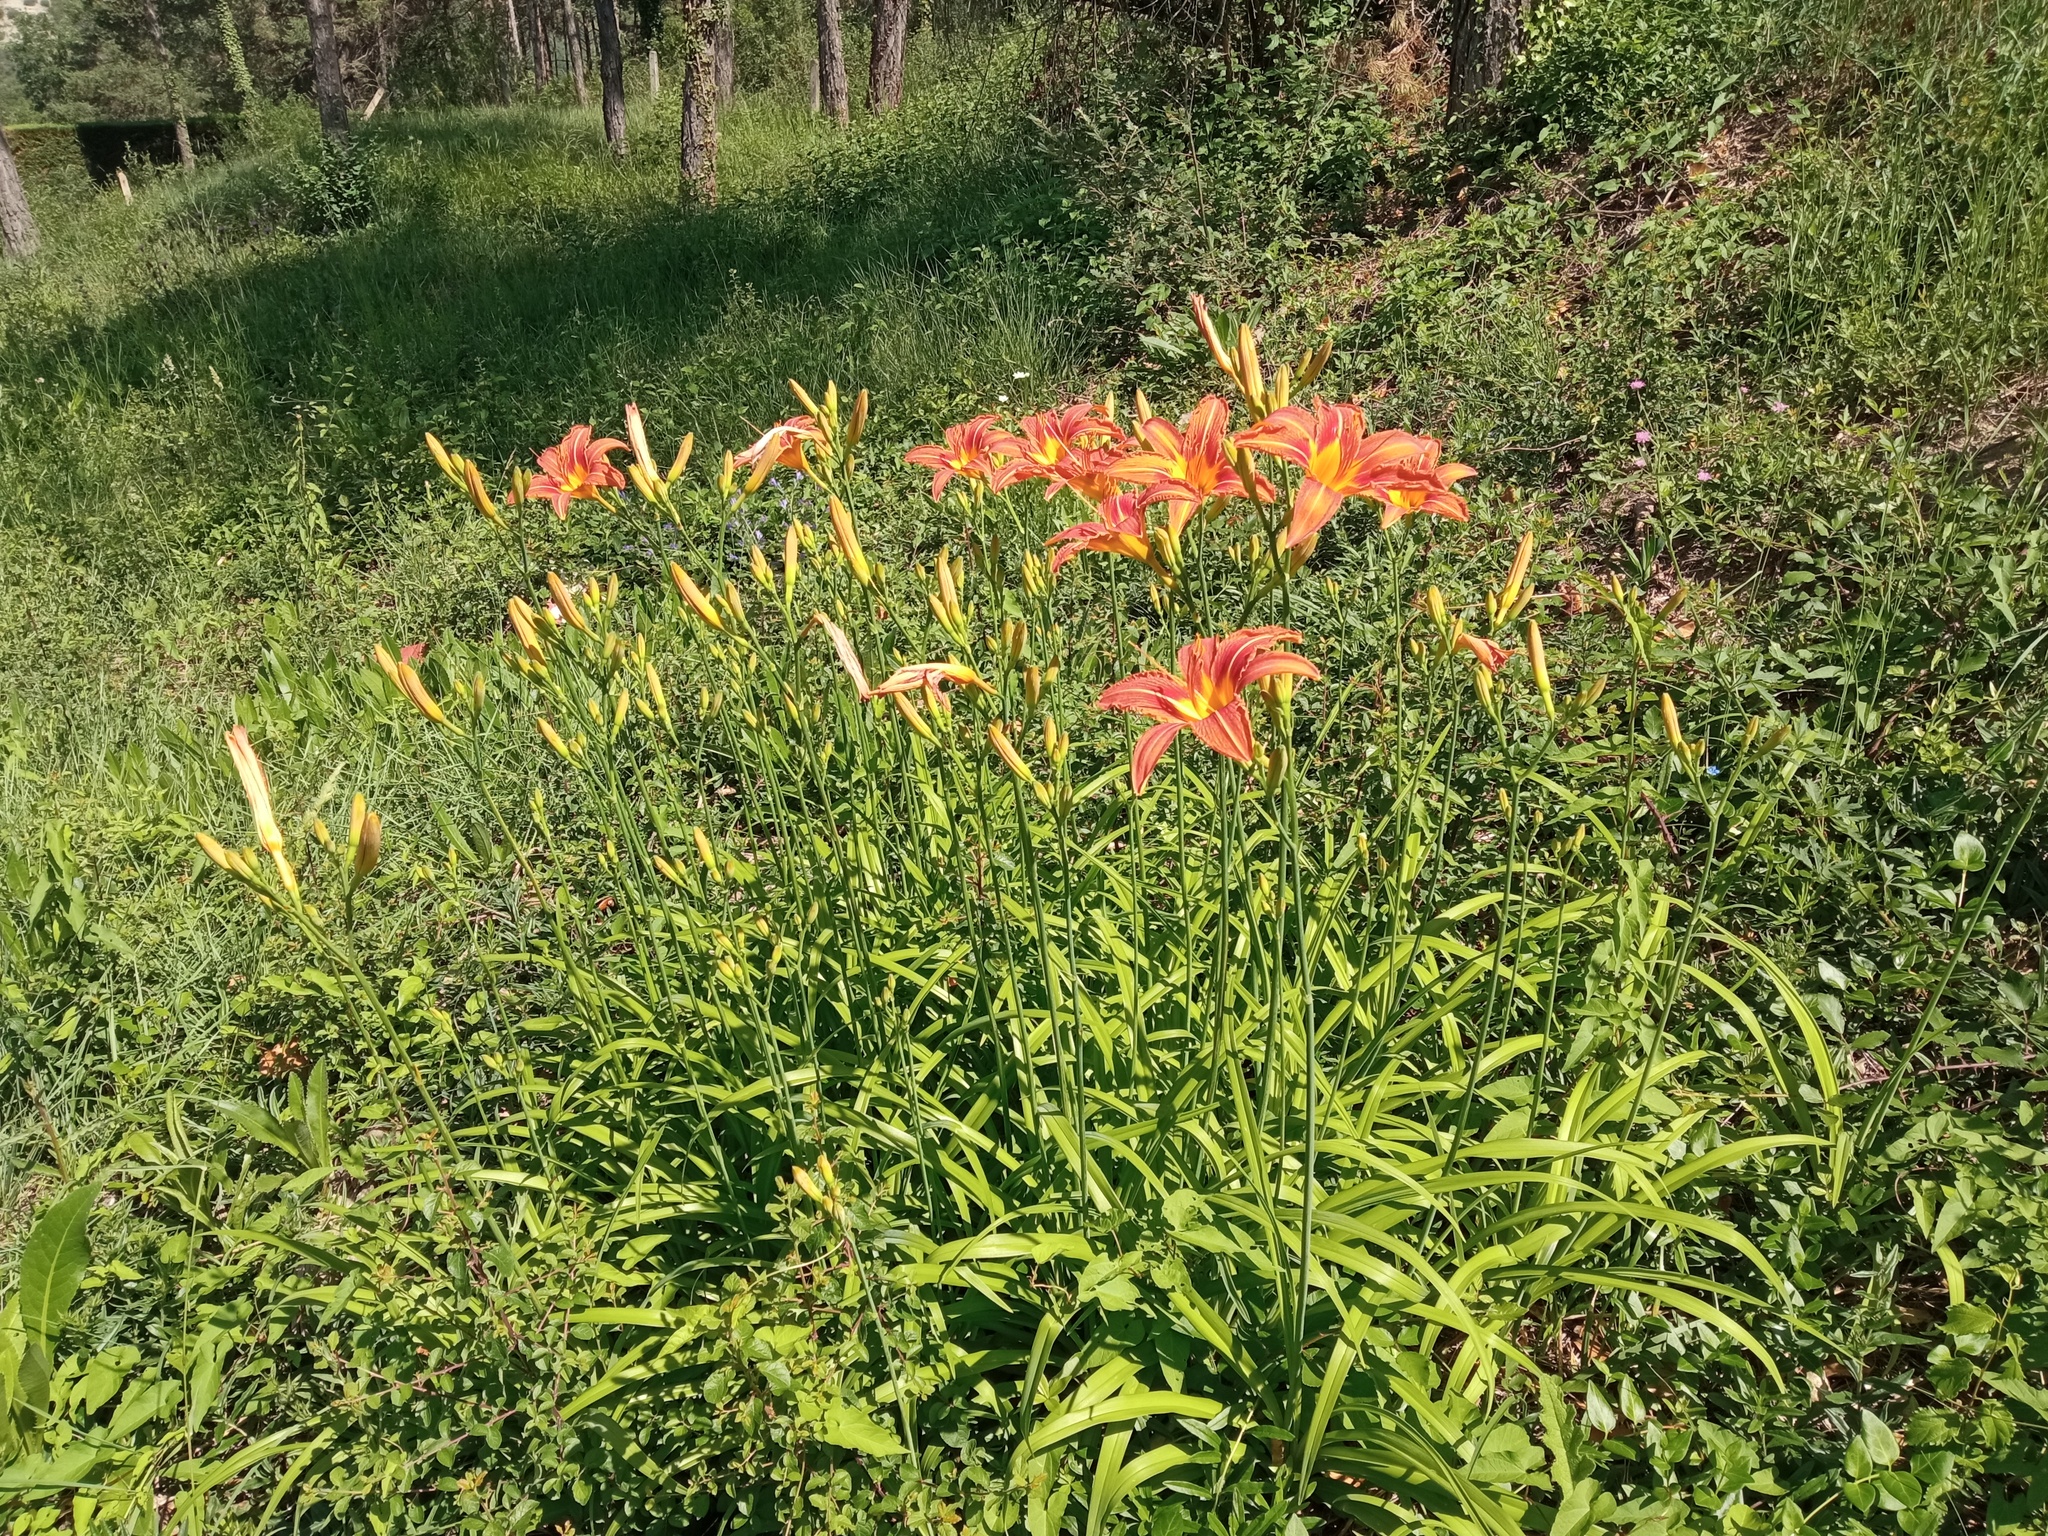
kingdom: Plantae
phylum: Tracheophyta
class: Liliopsida
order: Asparagales
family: Asphodelaceae
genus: Hemerocallis
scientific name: Hemerocallis fulva
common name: Orange day-lily
